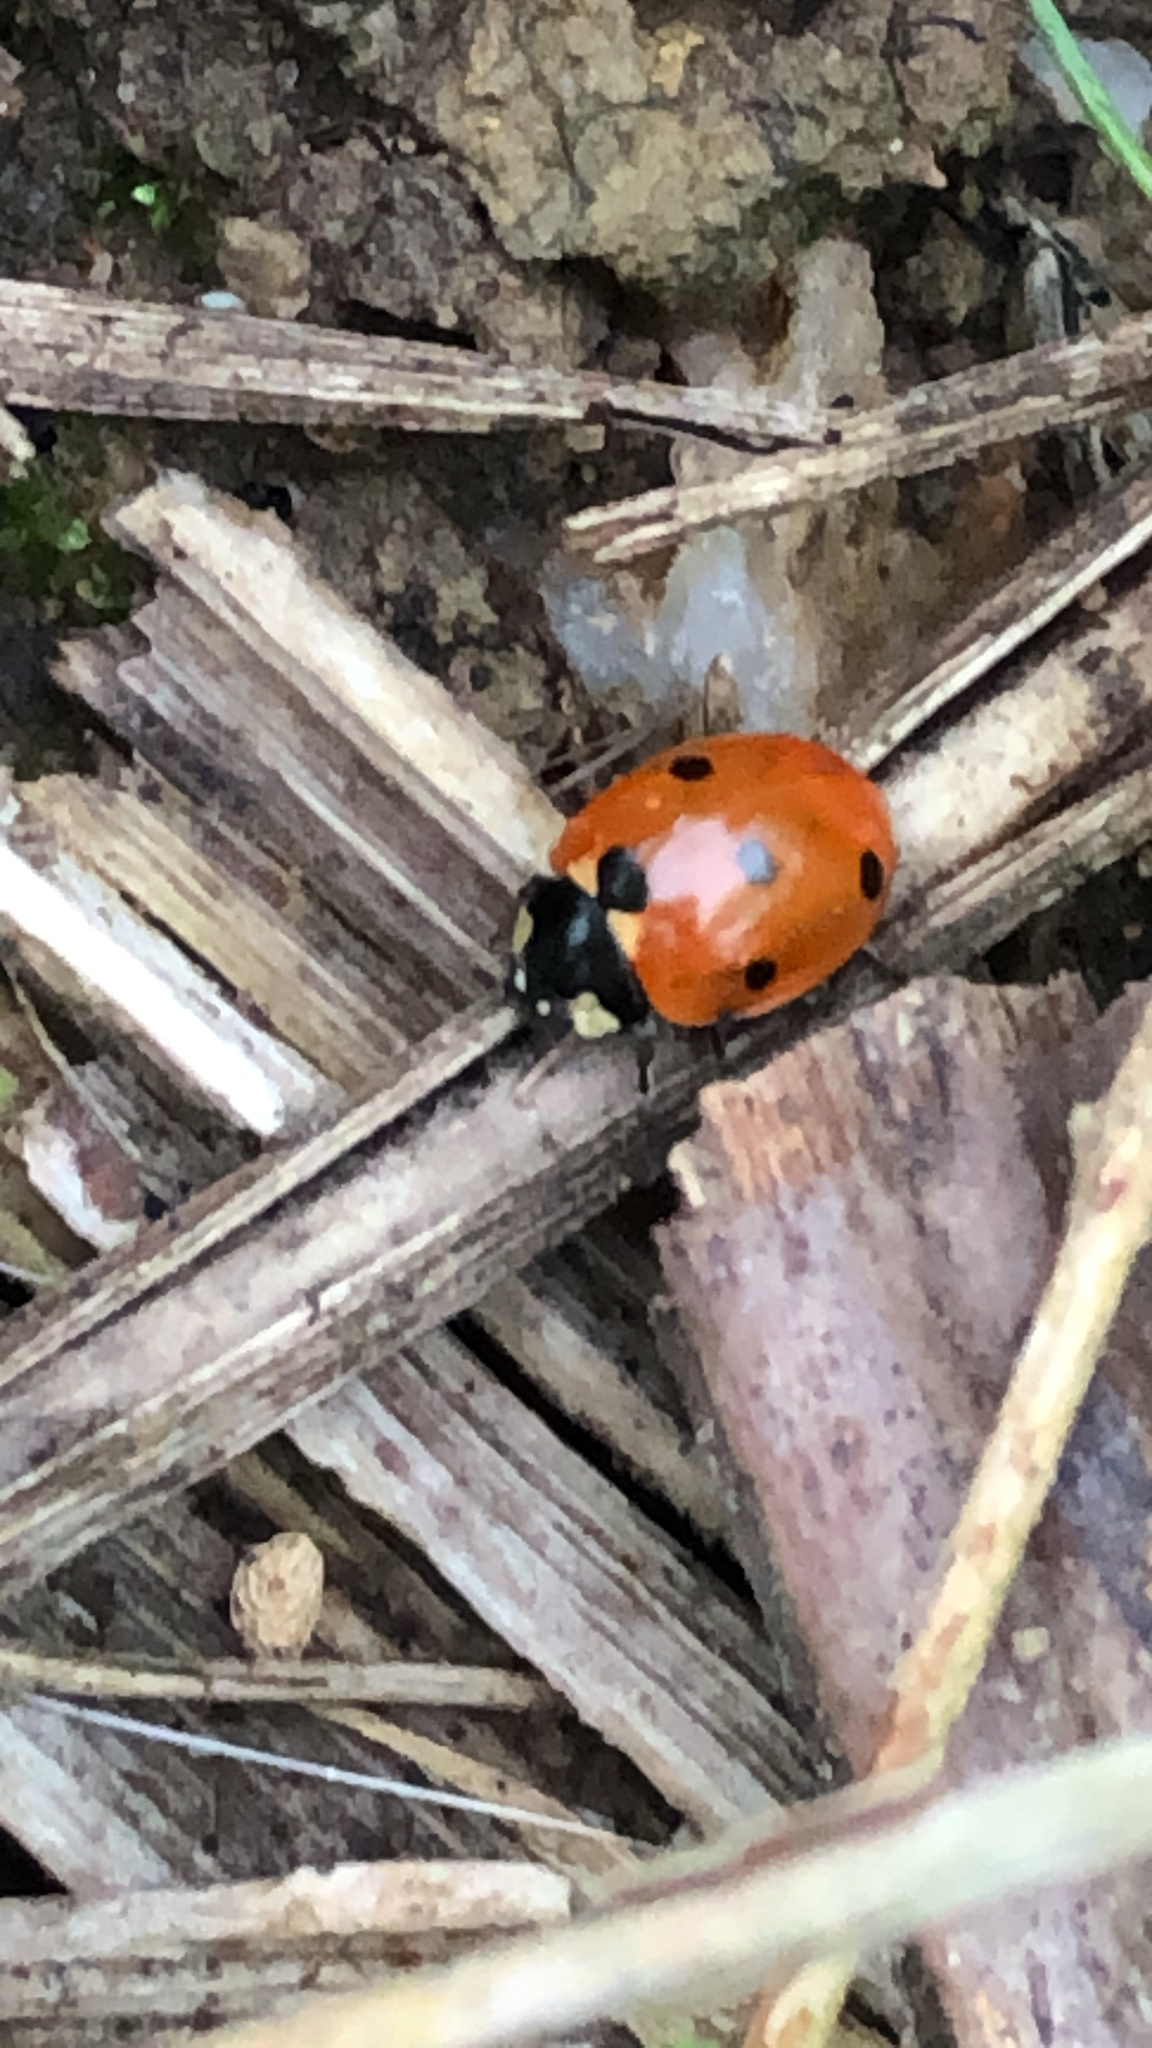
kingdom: Animalia
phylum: Arthropoda
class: Insecta
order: Coleoptera
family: Coccinellidae
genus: Coccinella
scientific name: Coccinella septempunctata
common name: Sevenspotted lady beetle
